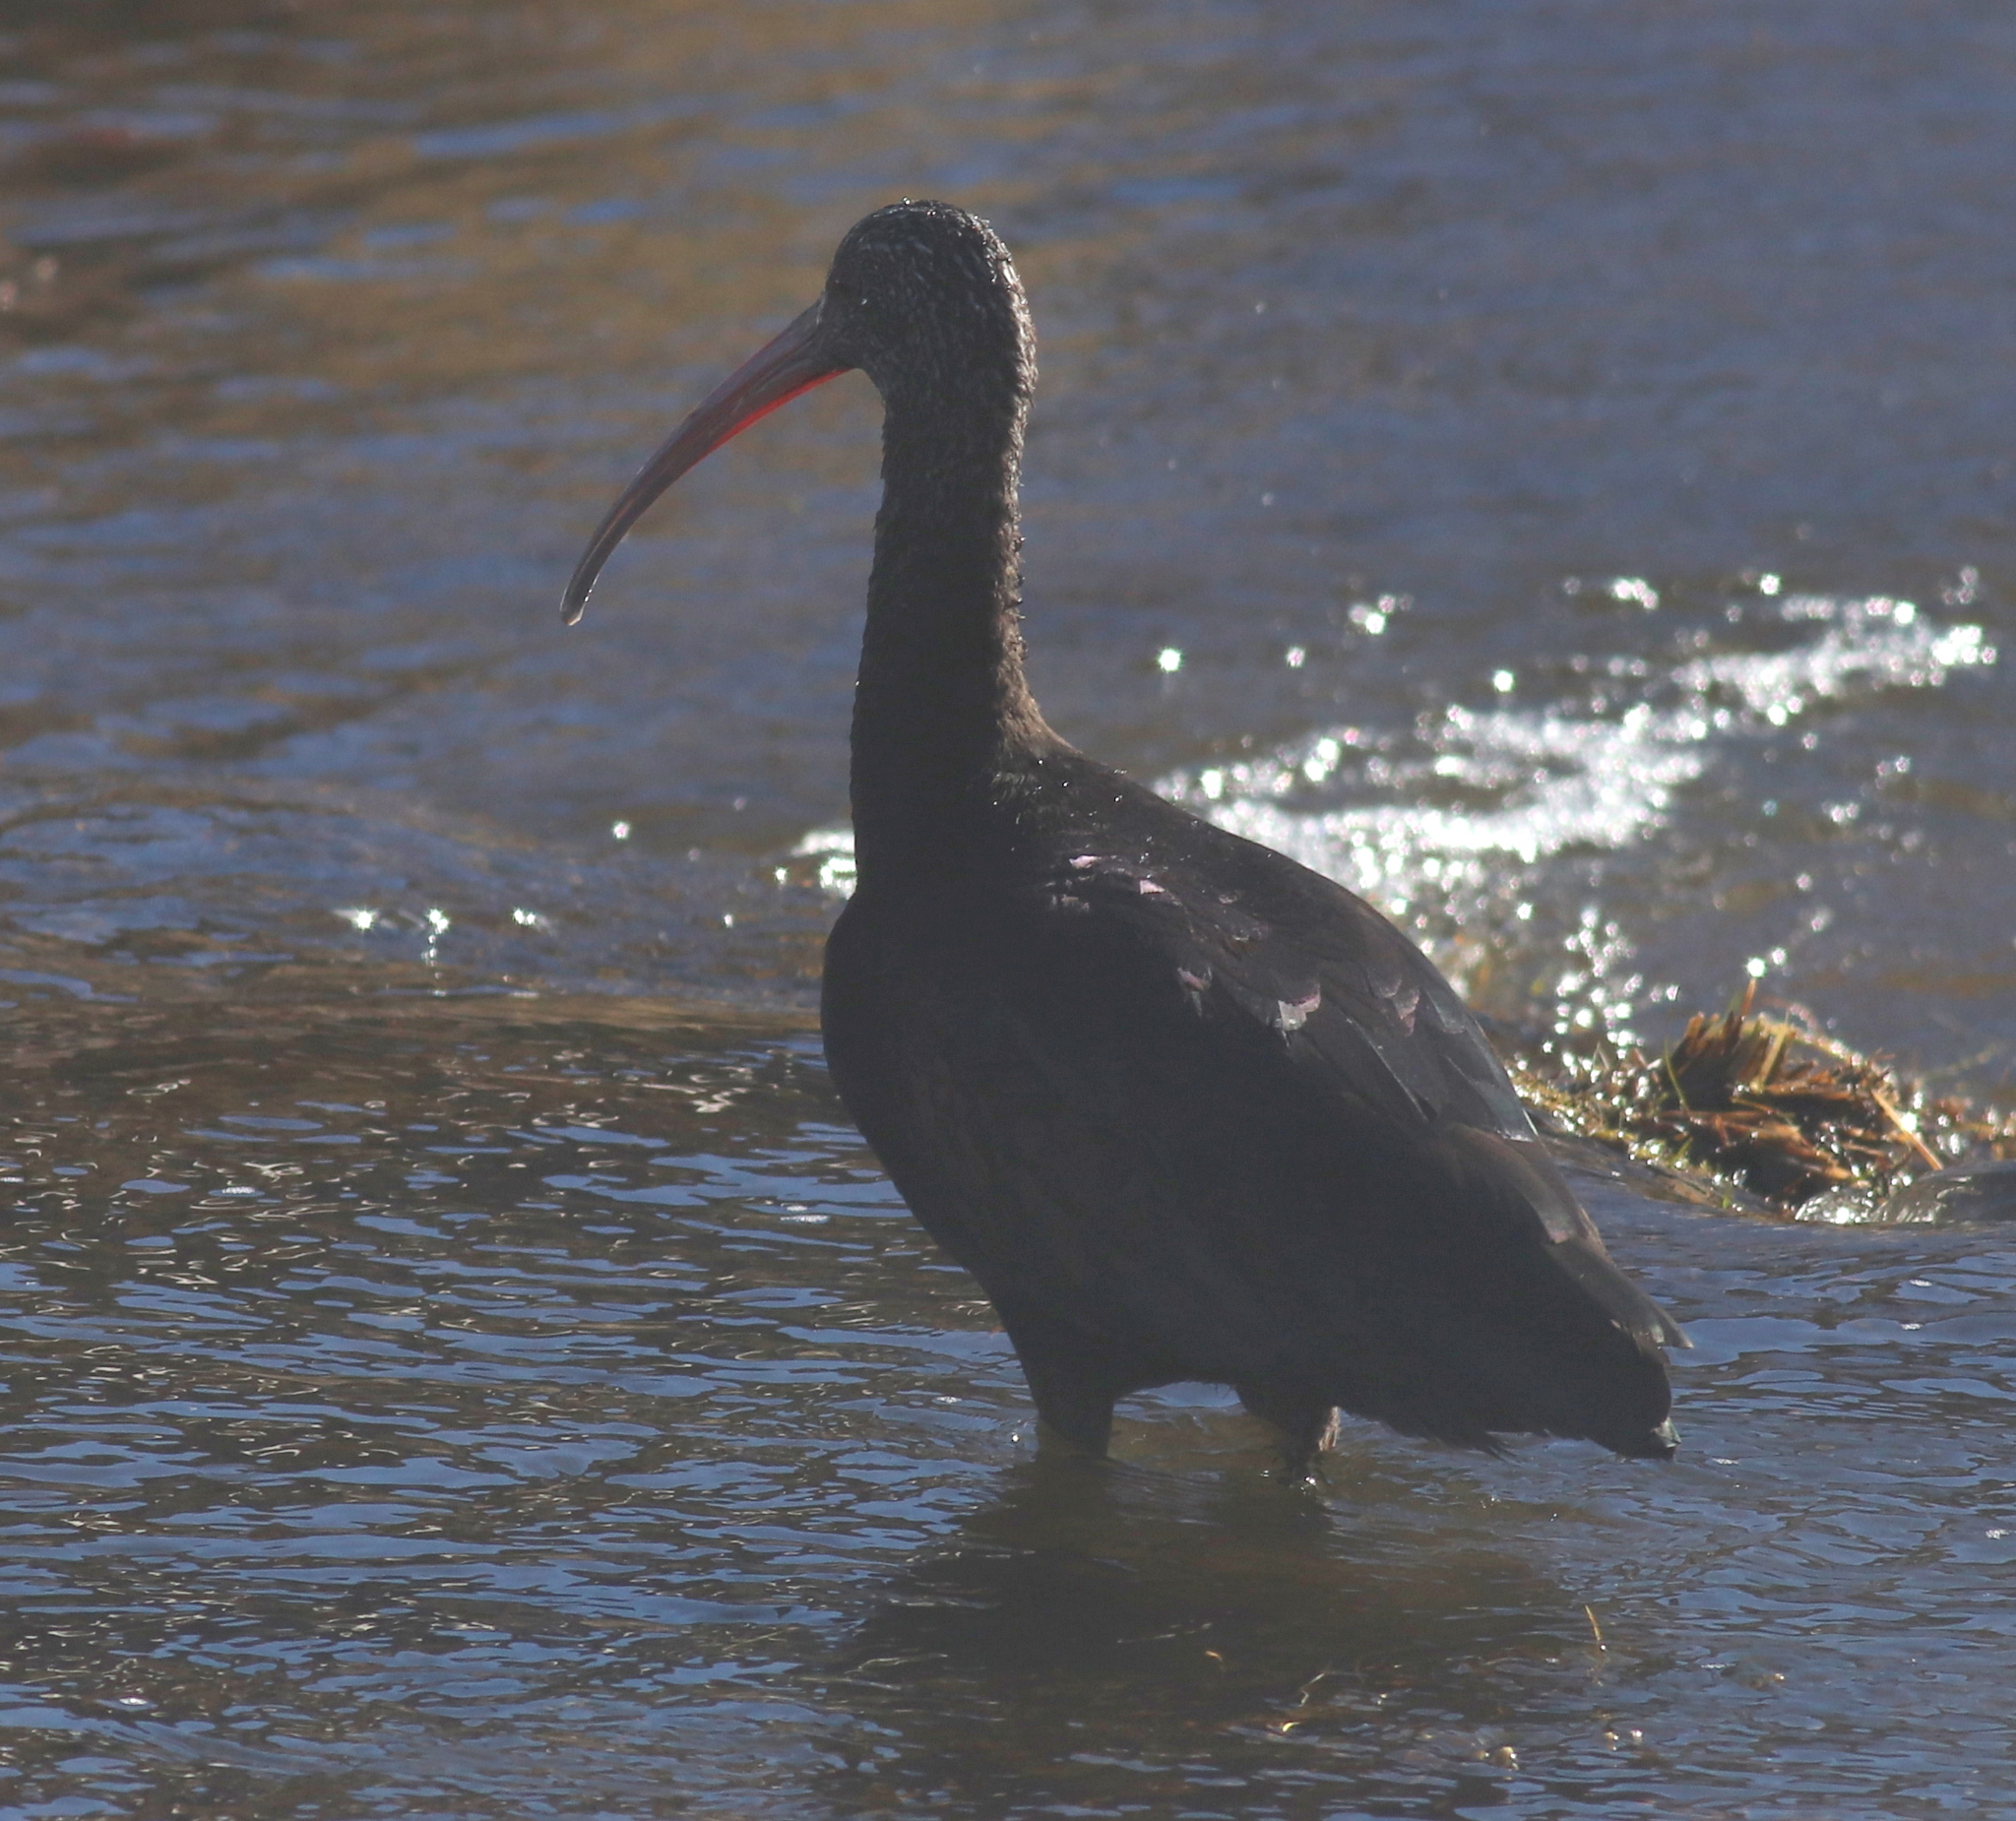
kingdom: Animalia
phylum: Chordata
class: Aves
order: Pelecaniformes
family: Threskiornithidae
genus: Plegadis
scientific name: Plegadis ridgwayi
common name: Puna ibis
